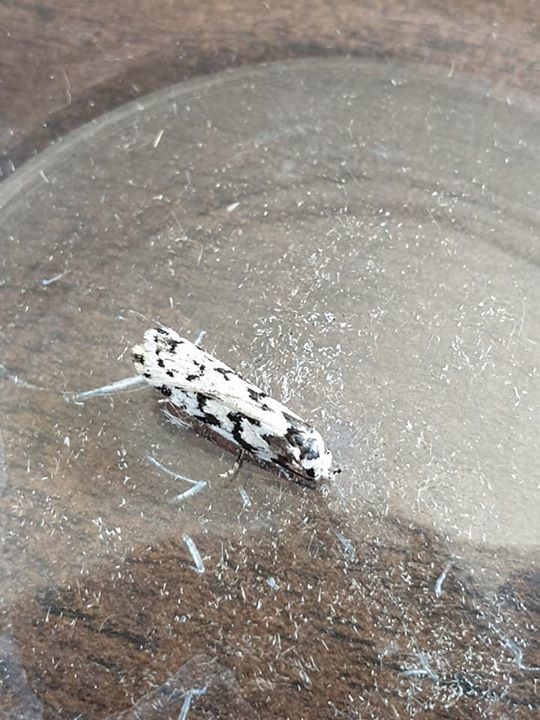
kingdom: Animalia
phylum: Arthropoda
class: Insecta
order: Lepidoptera
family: Oecophoridae
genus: Izatha
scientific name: Izatha katadiktya
